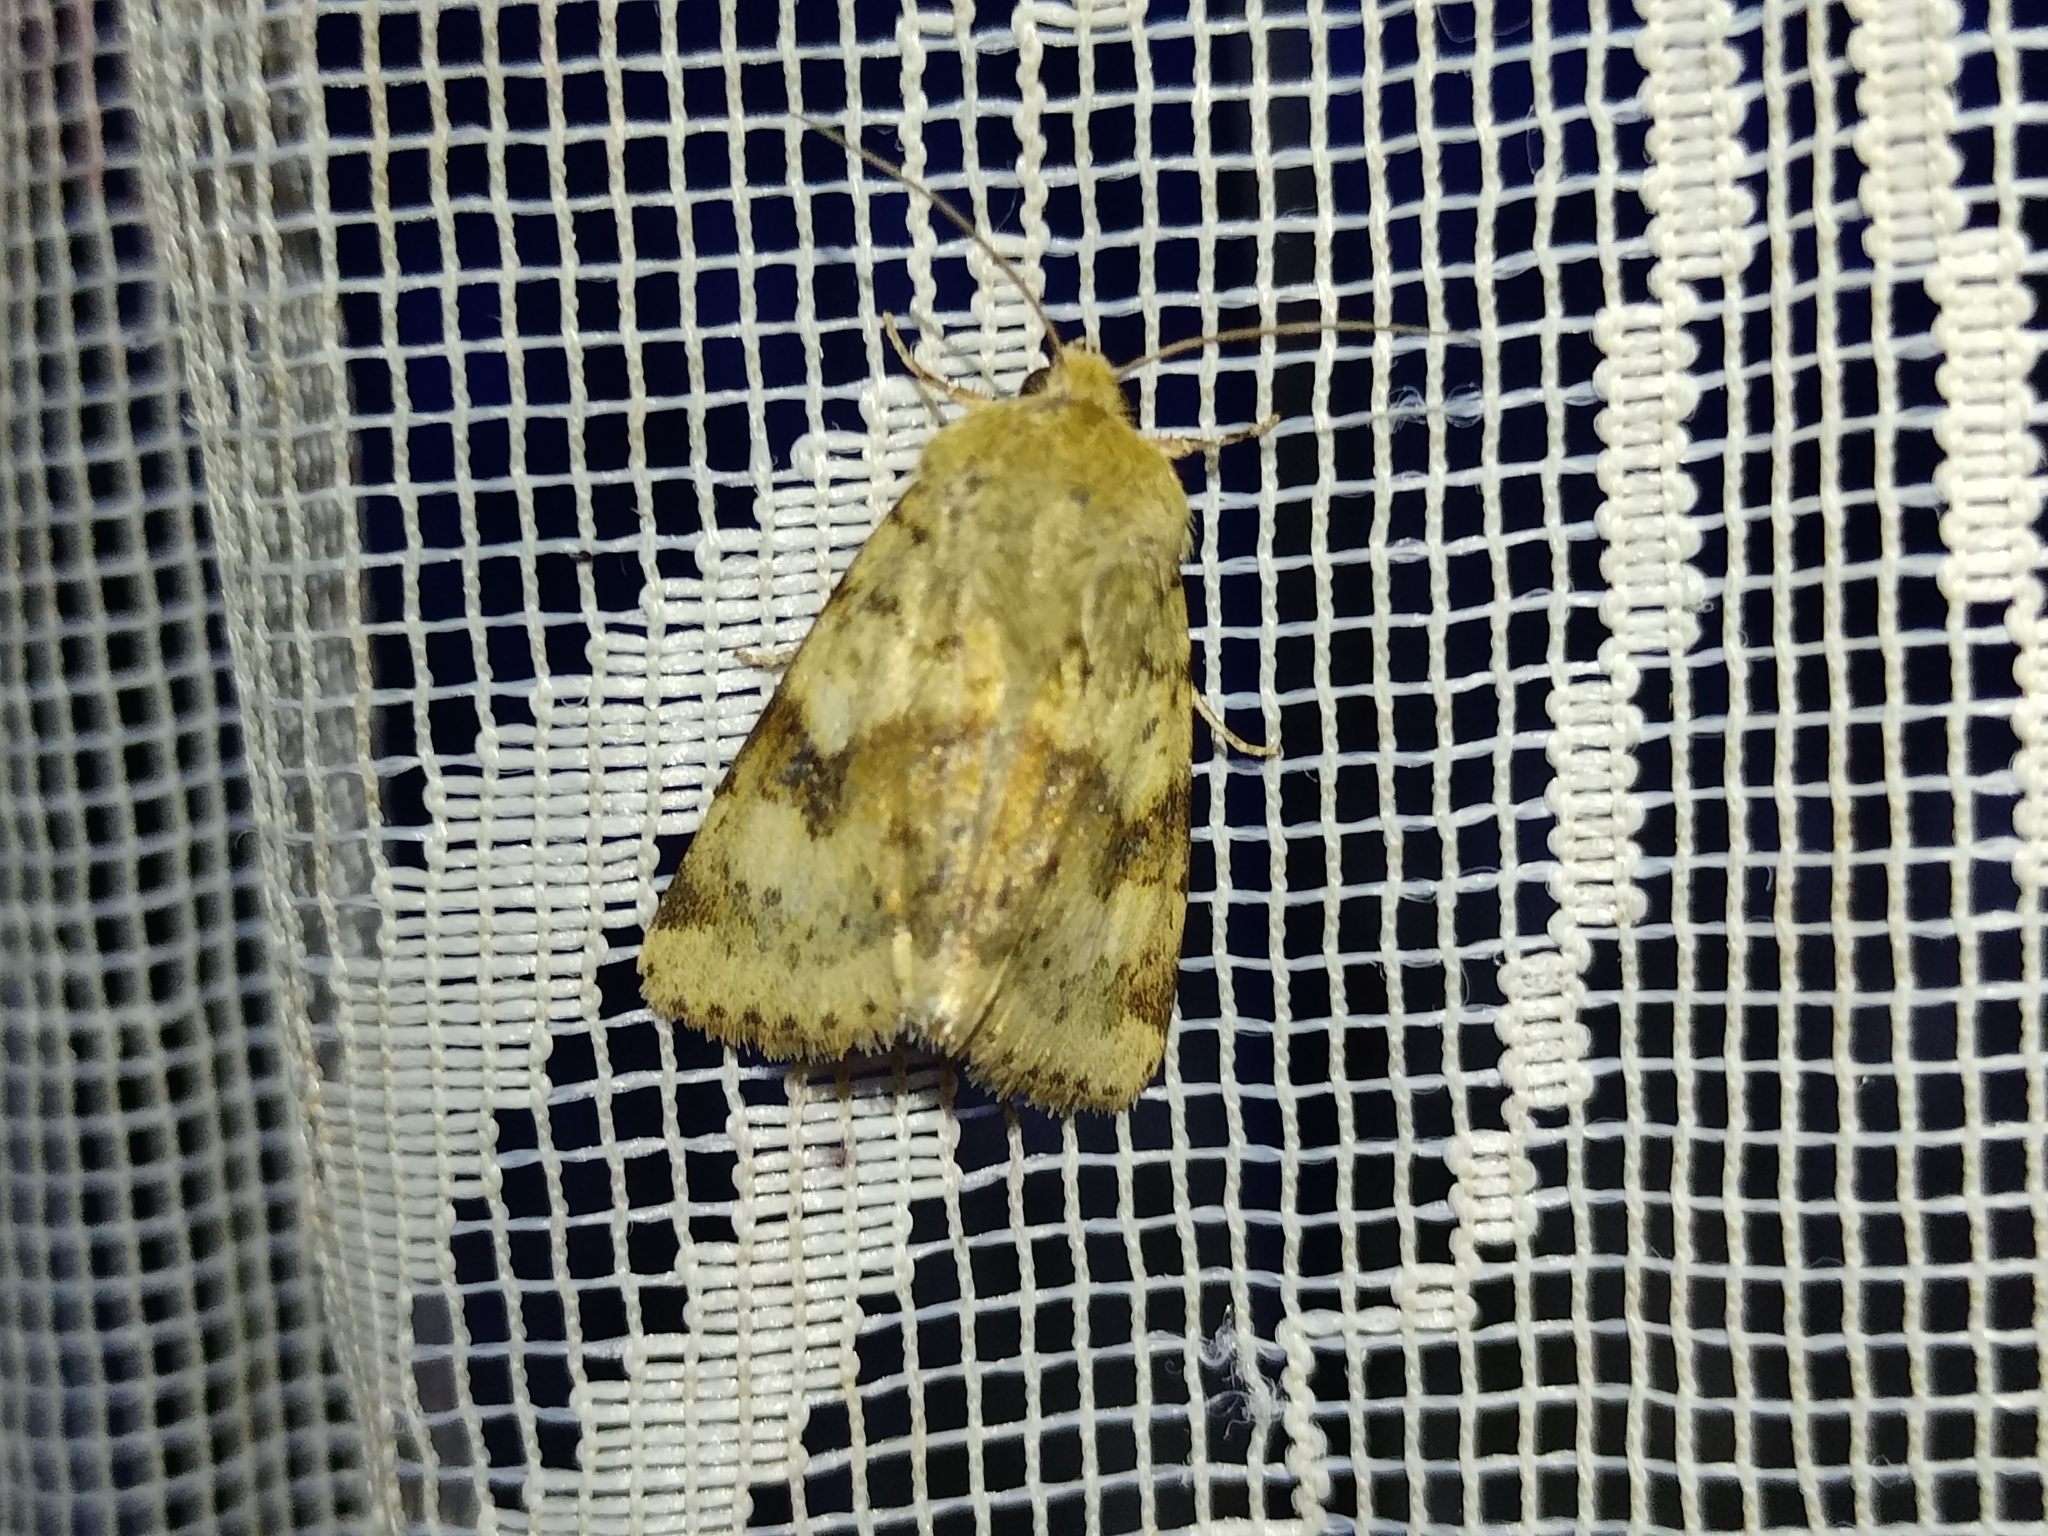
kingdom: Animalia
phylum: Arthropoda
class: Insecta
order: Lepidoptera
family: Noctuidae
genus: Heliothis
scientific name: Heliothis viriplaca
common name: Marbled clover
